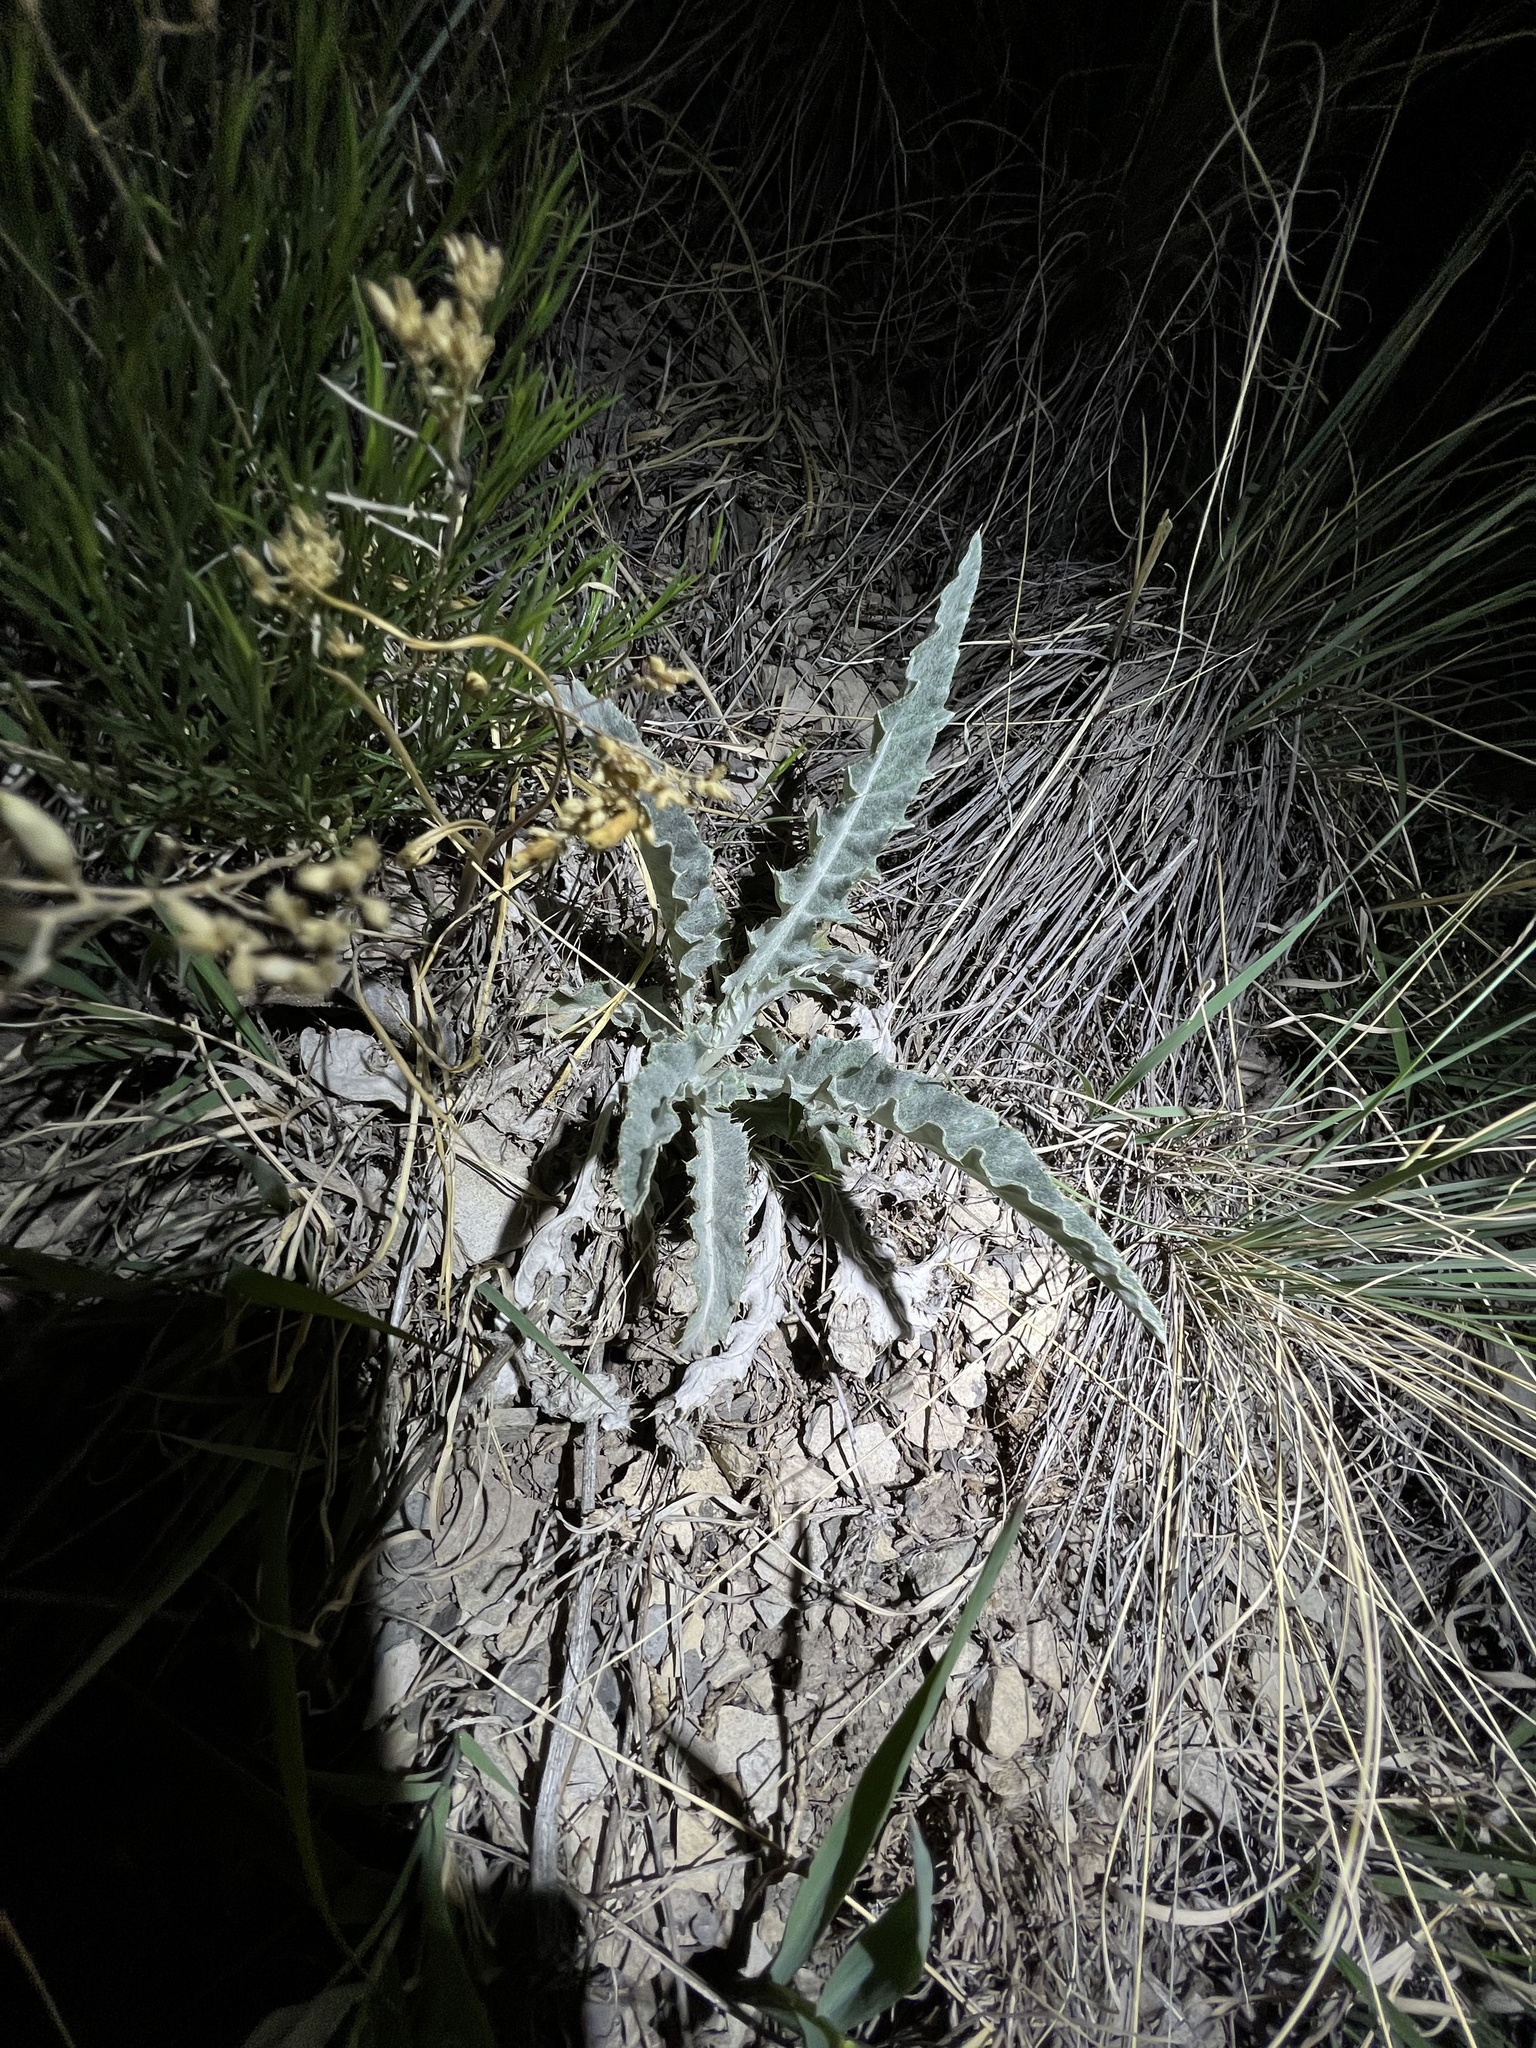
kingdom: Plantae
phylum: Tracheophyta
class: Magnoliopsida
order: Asterales
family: Asteraceae
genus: Cirsium
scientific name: Cirsium undulatum
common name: Pasture thistle
